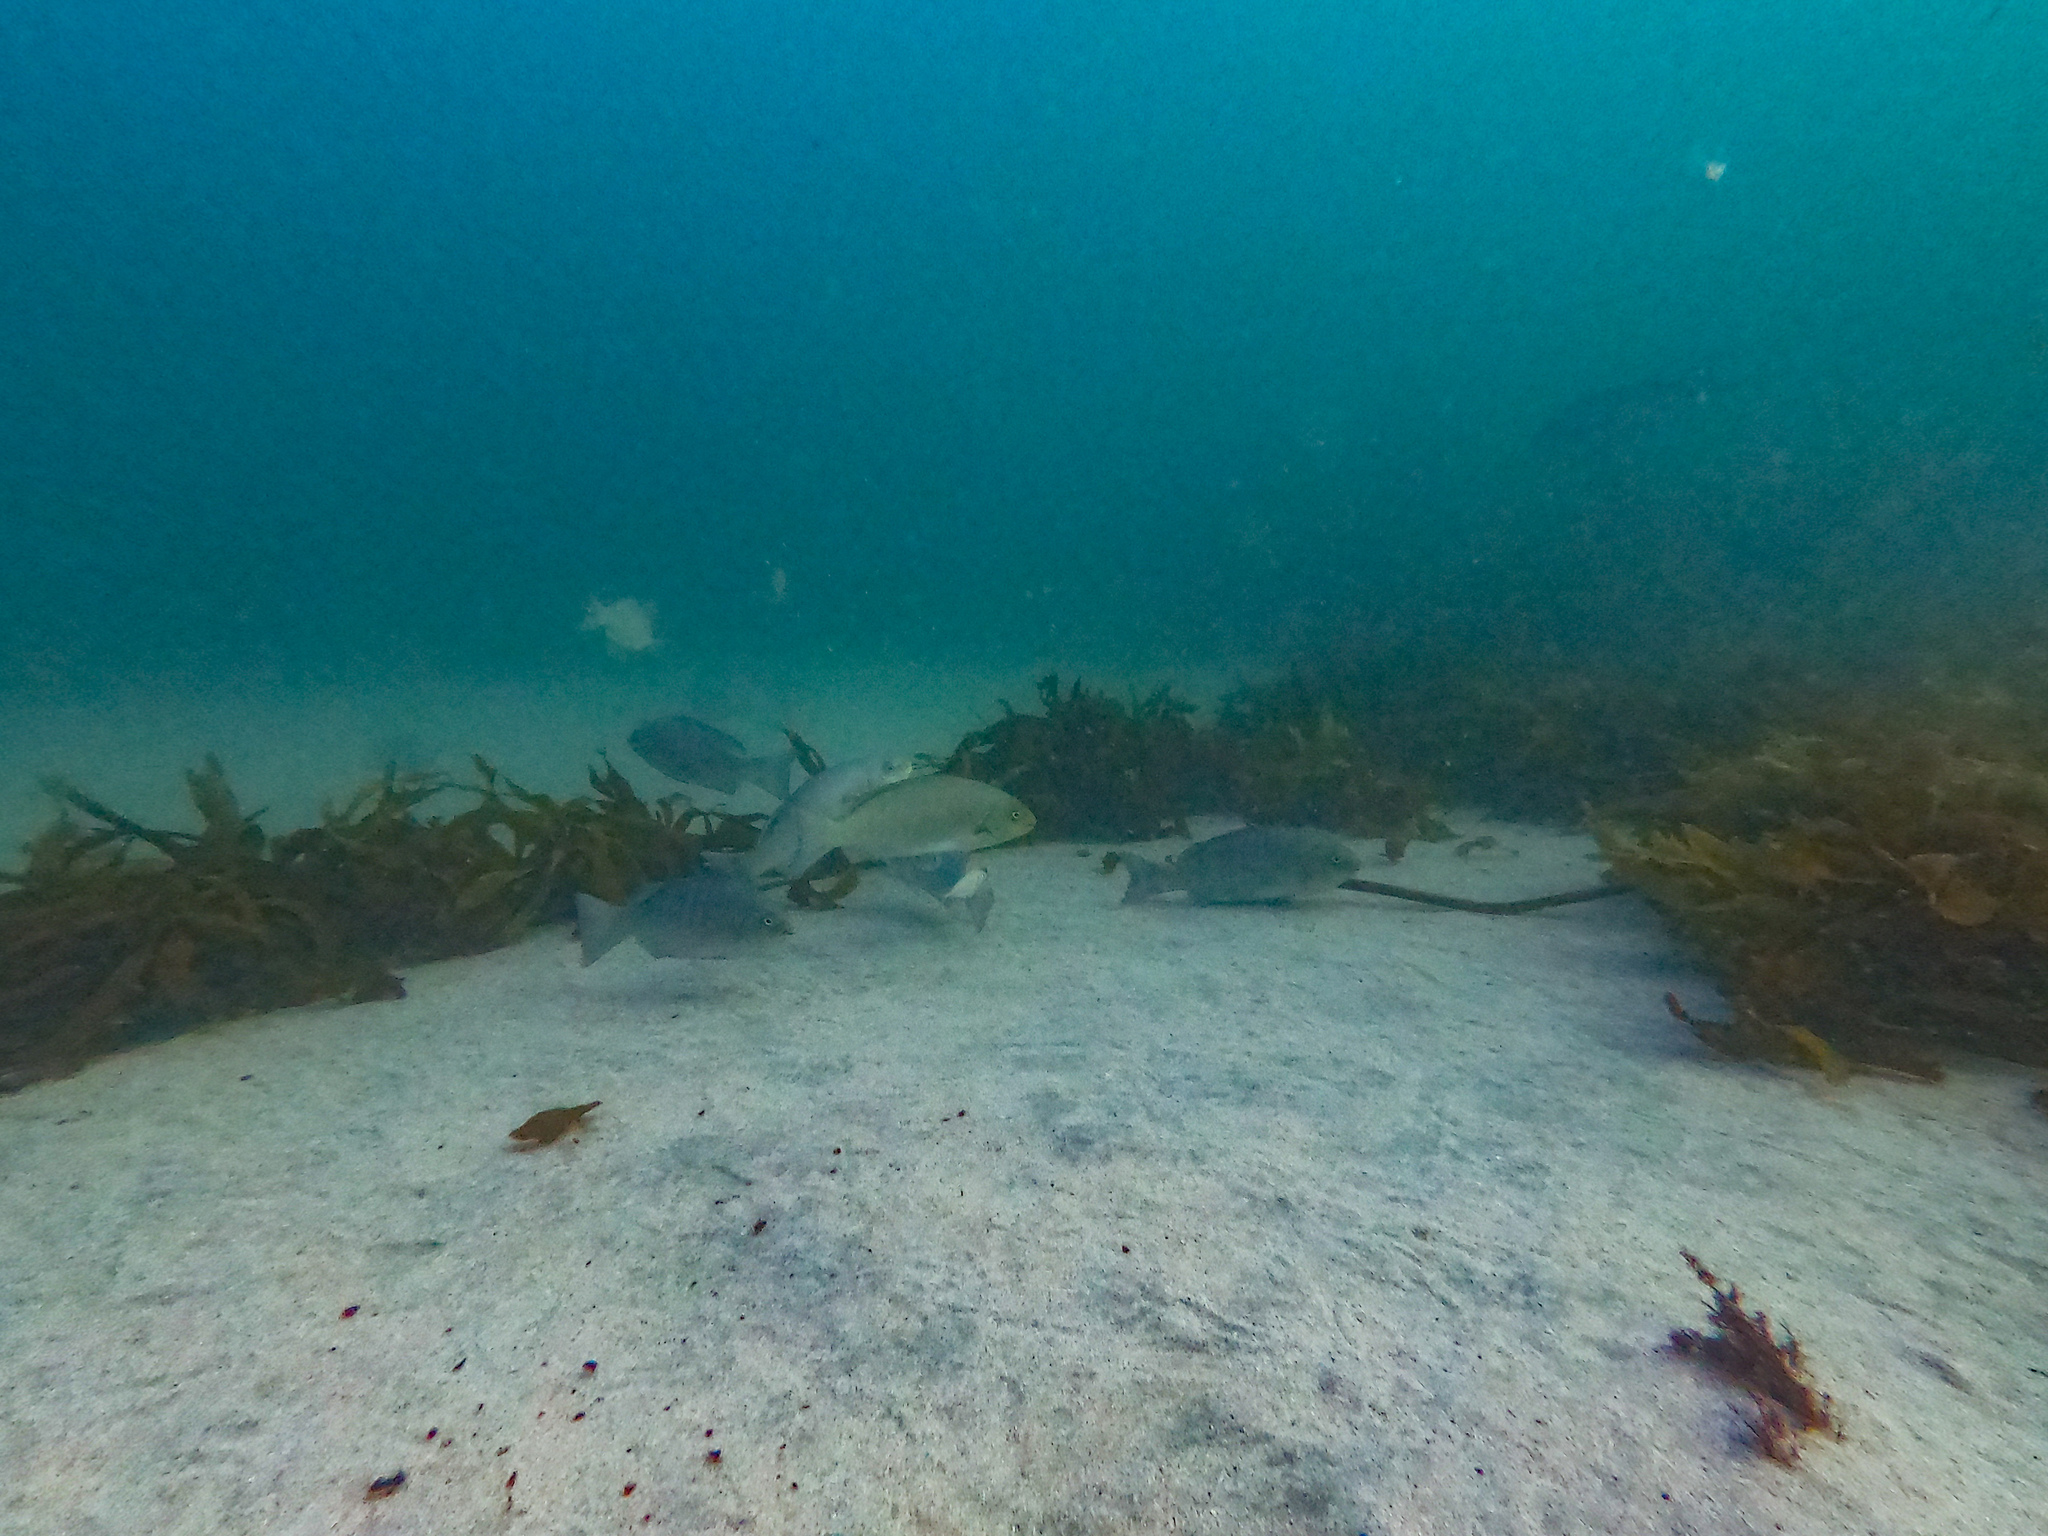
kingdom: Animalia
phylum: Chordata
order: Perciformes
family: Kyphosidae
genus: Girella
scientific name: Girella tricuspidata
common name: Parore
